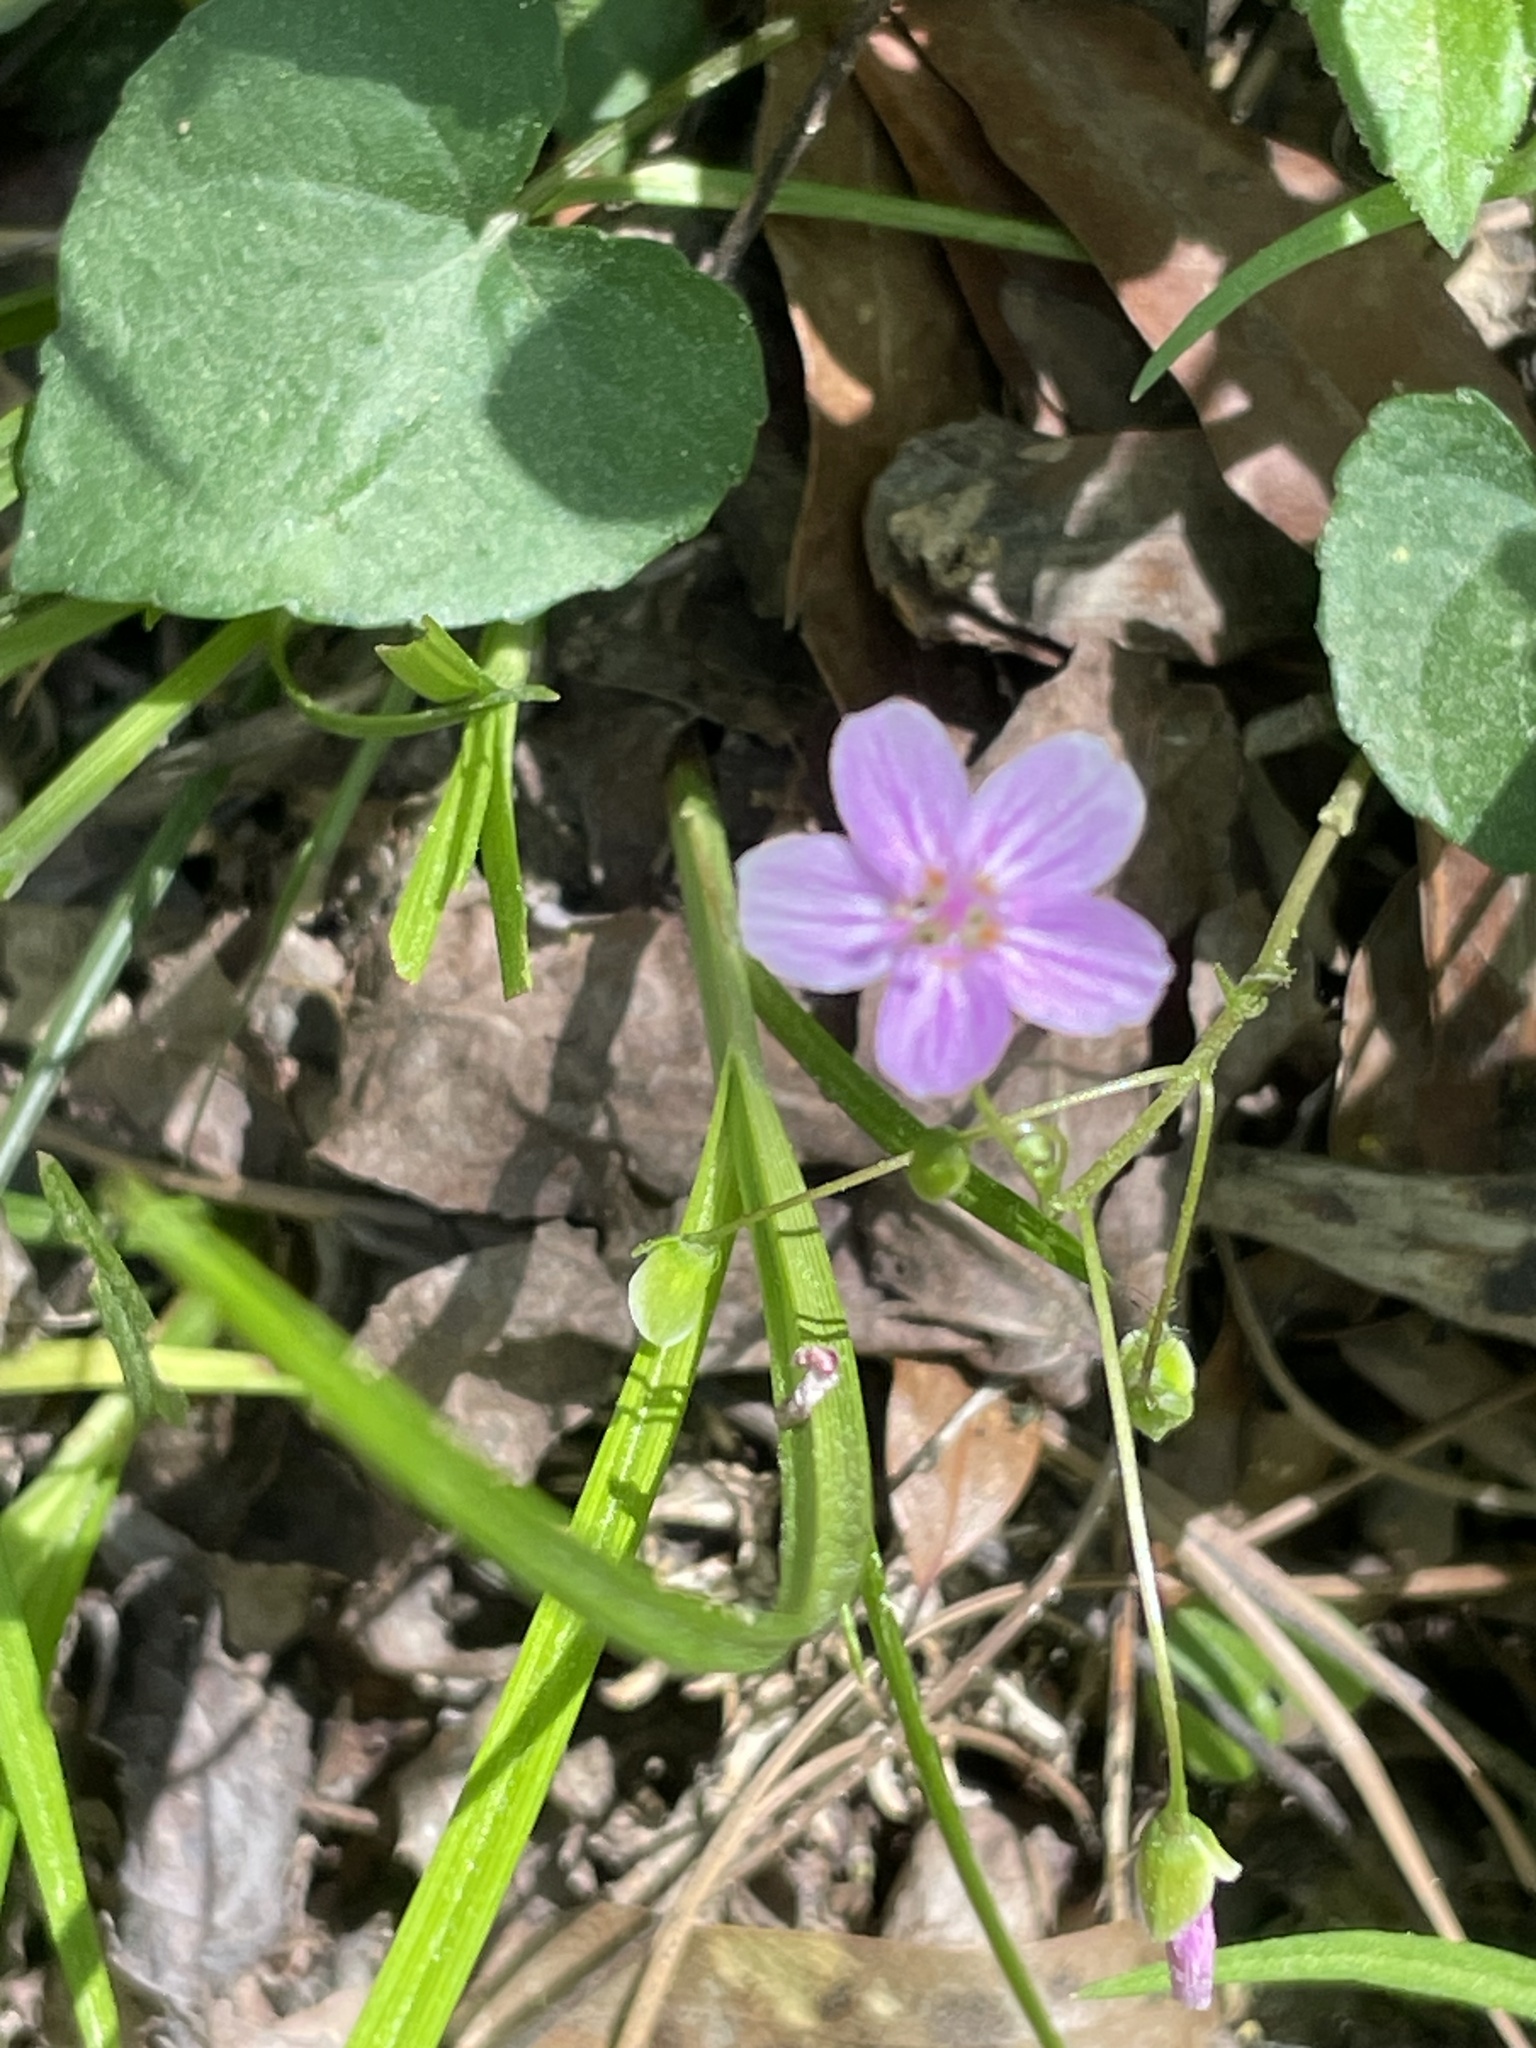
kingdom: Plantae
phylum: Tracheophyta
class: Magnoliopsida
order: Caryophyllales
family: Montiaceae
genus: Claytonia
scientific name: Claytonia virginica
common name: Virginia springbeauty
